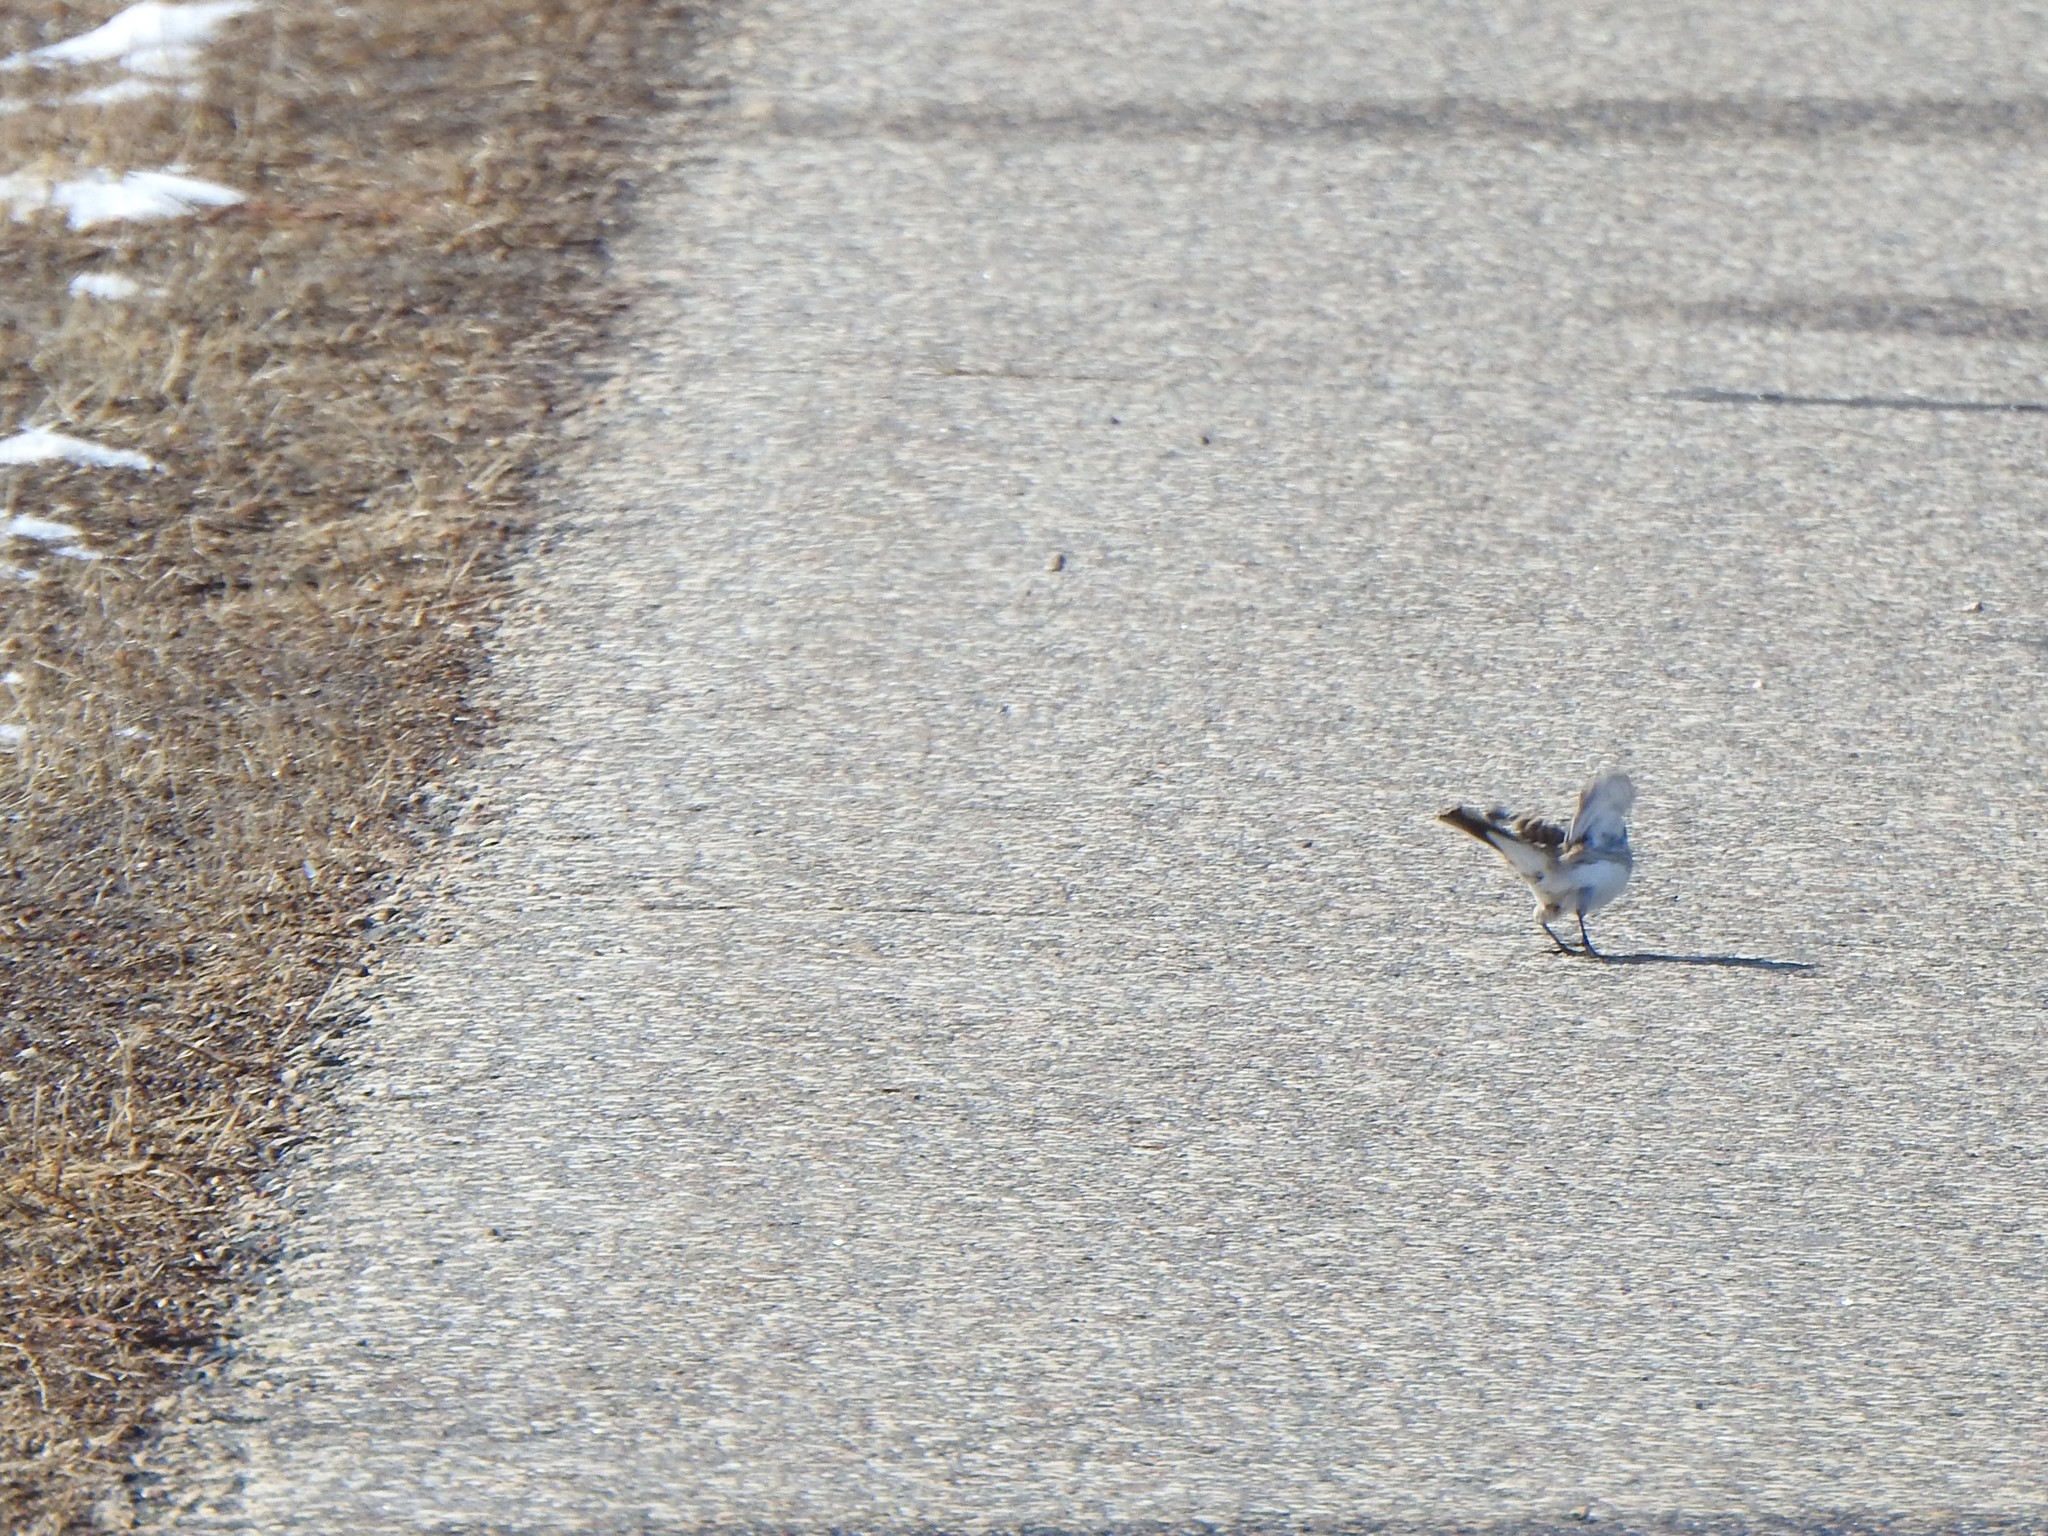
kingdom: Animalia
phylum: Chordata
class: Aves
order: Passeriformes
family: Alaudidae
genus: Eremophila
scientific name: Eremophila alpestris
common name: Horned lark
